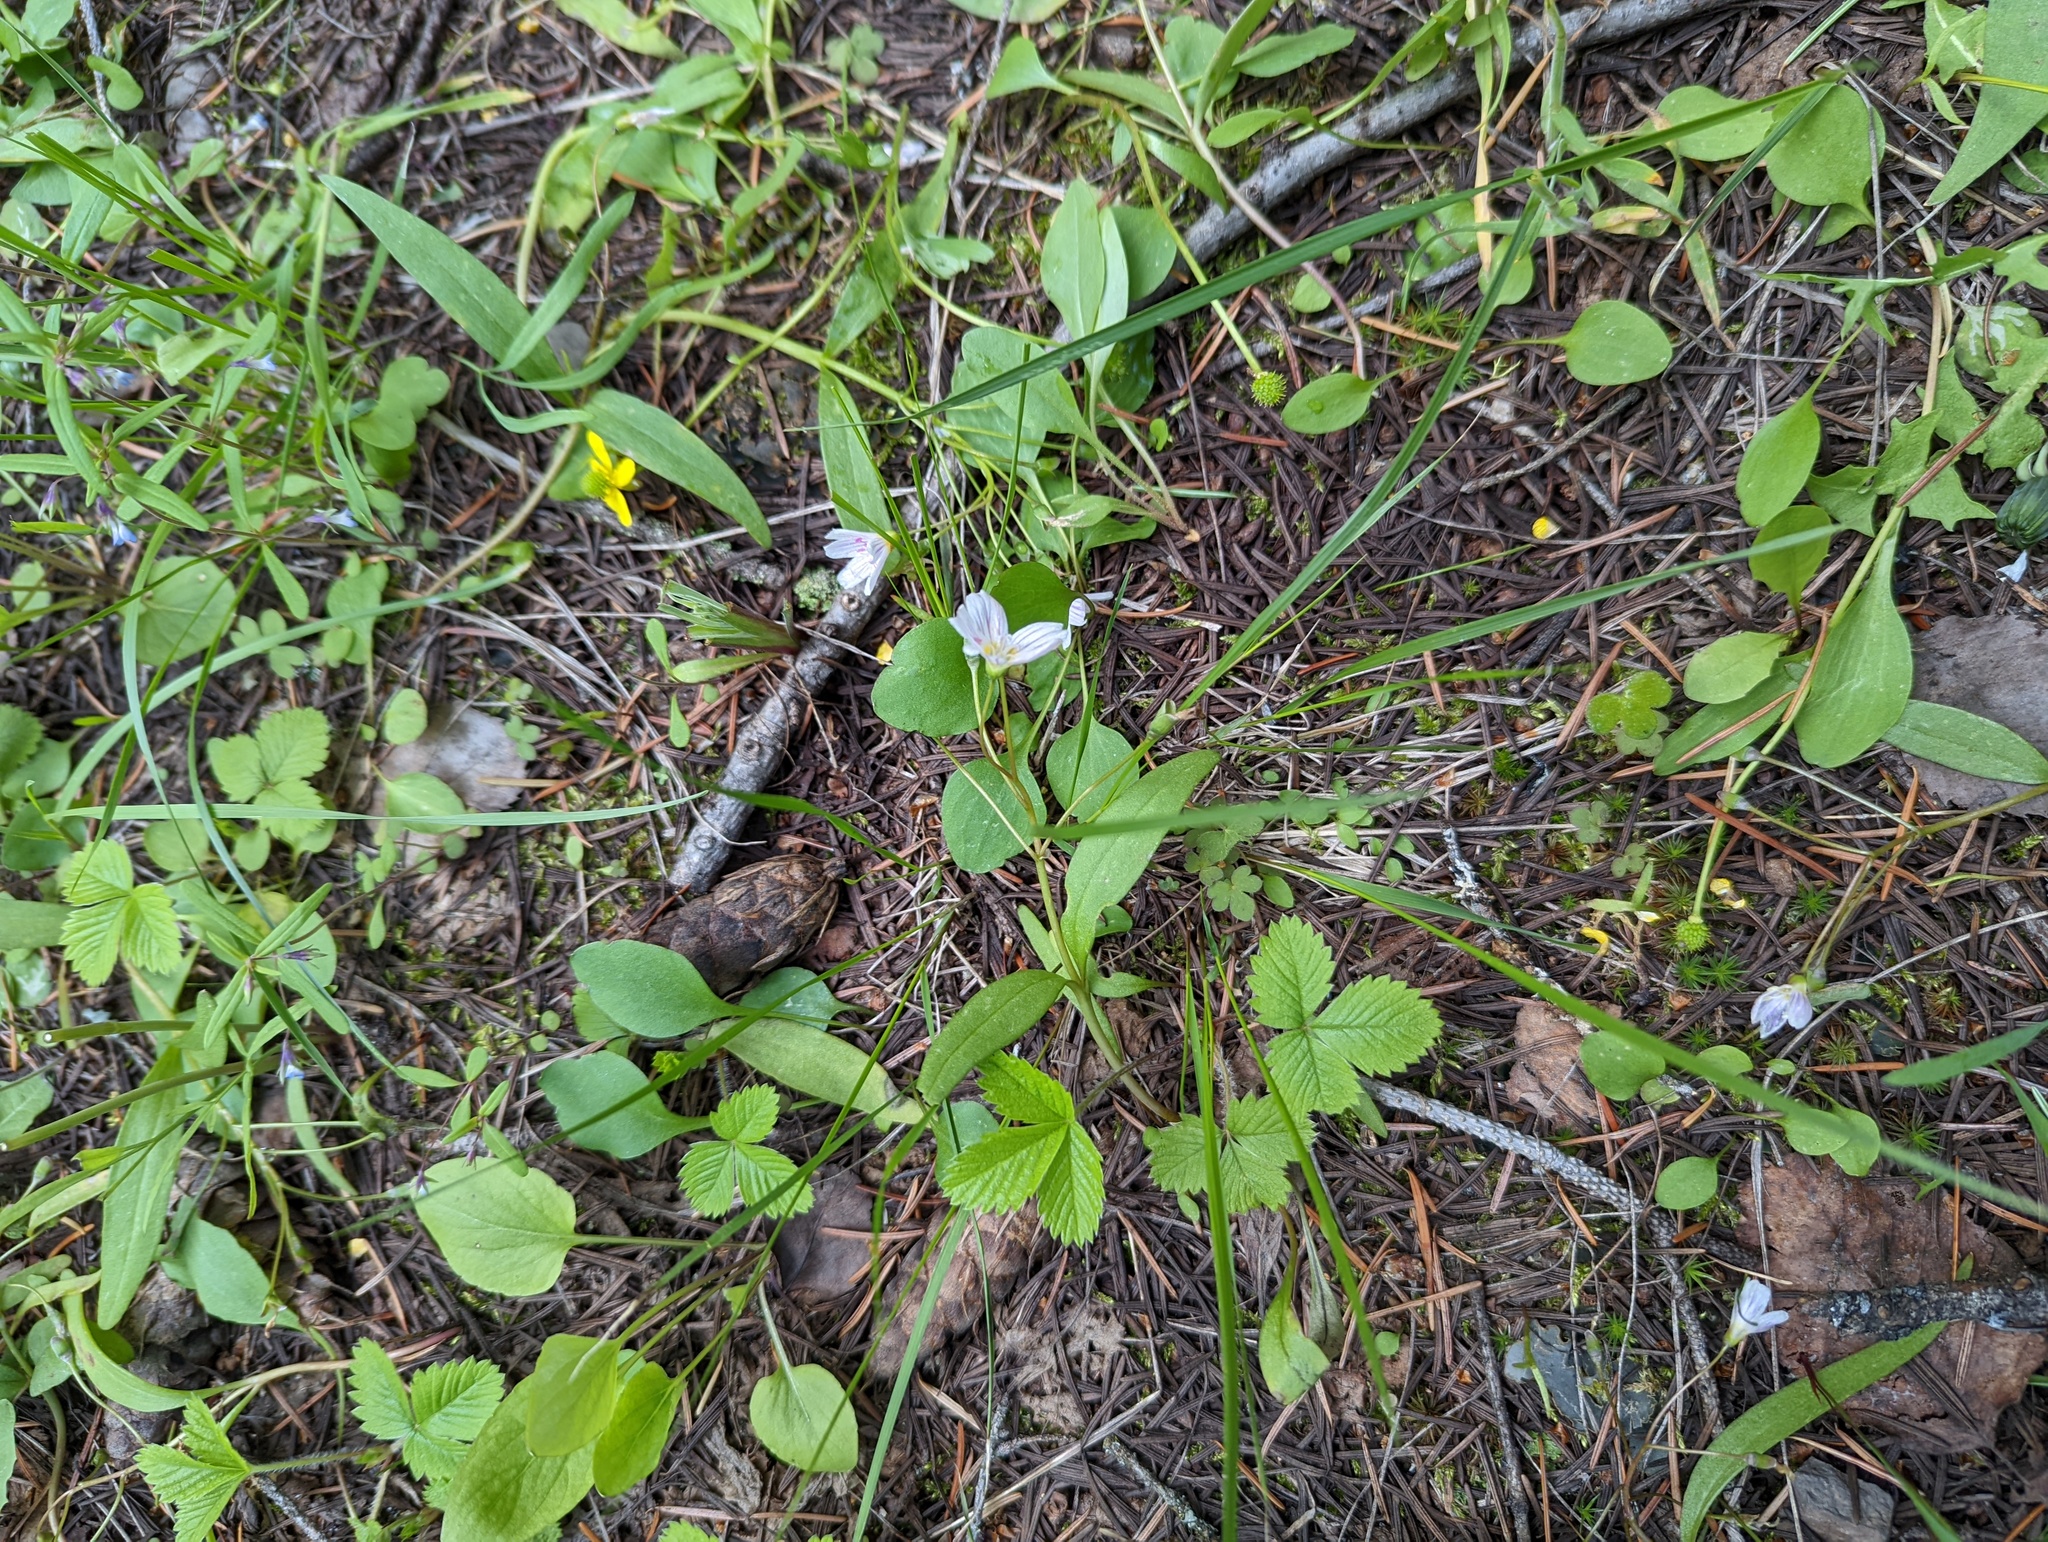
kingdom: Plantae
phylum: Tracheophyta
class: Magnoliopsida
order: Caryophyllales
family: Montiaceae
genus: Claytonia
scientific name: Claytonia lanceolata
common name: Western spring-beauty
